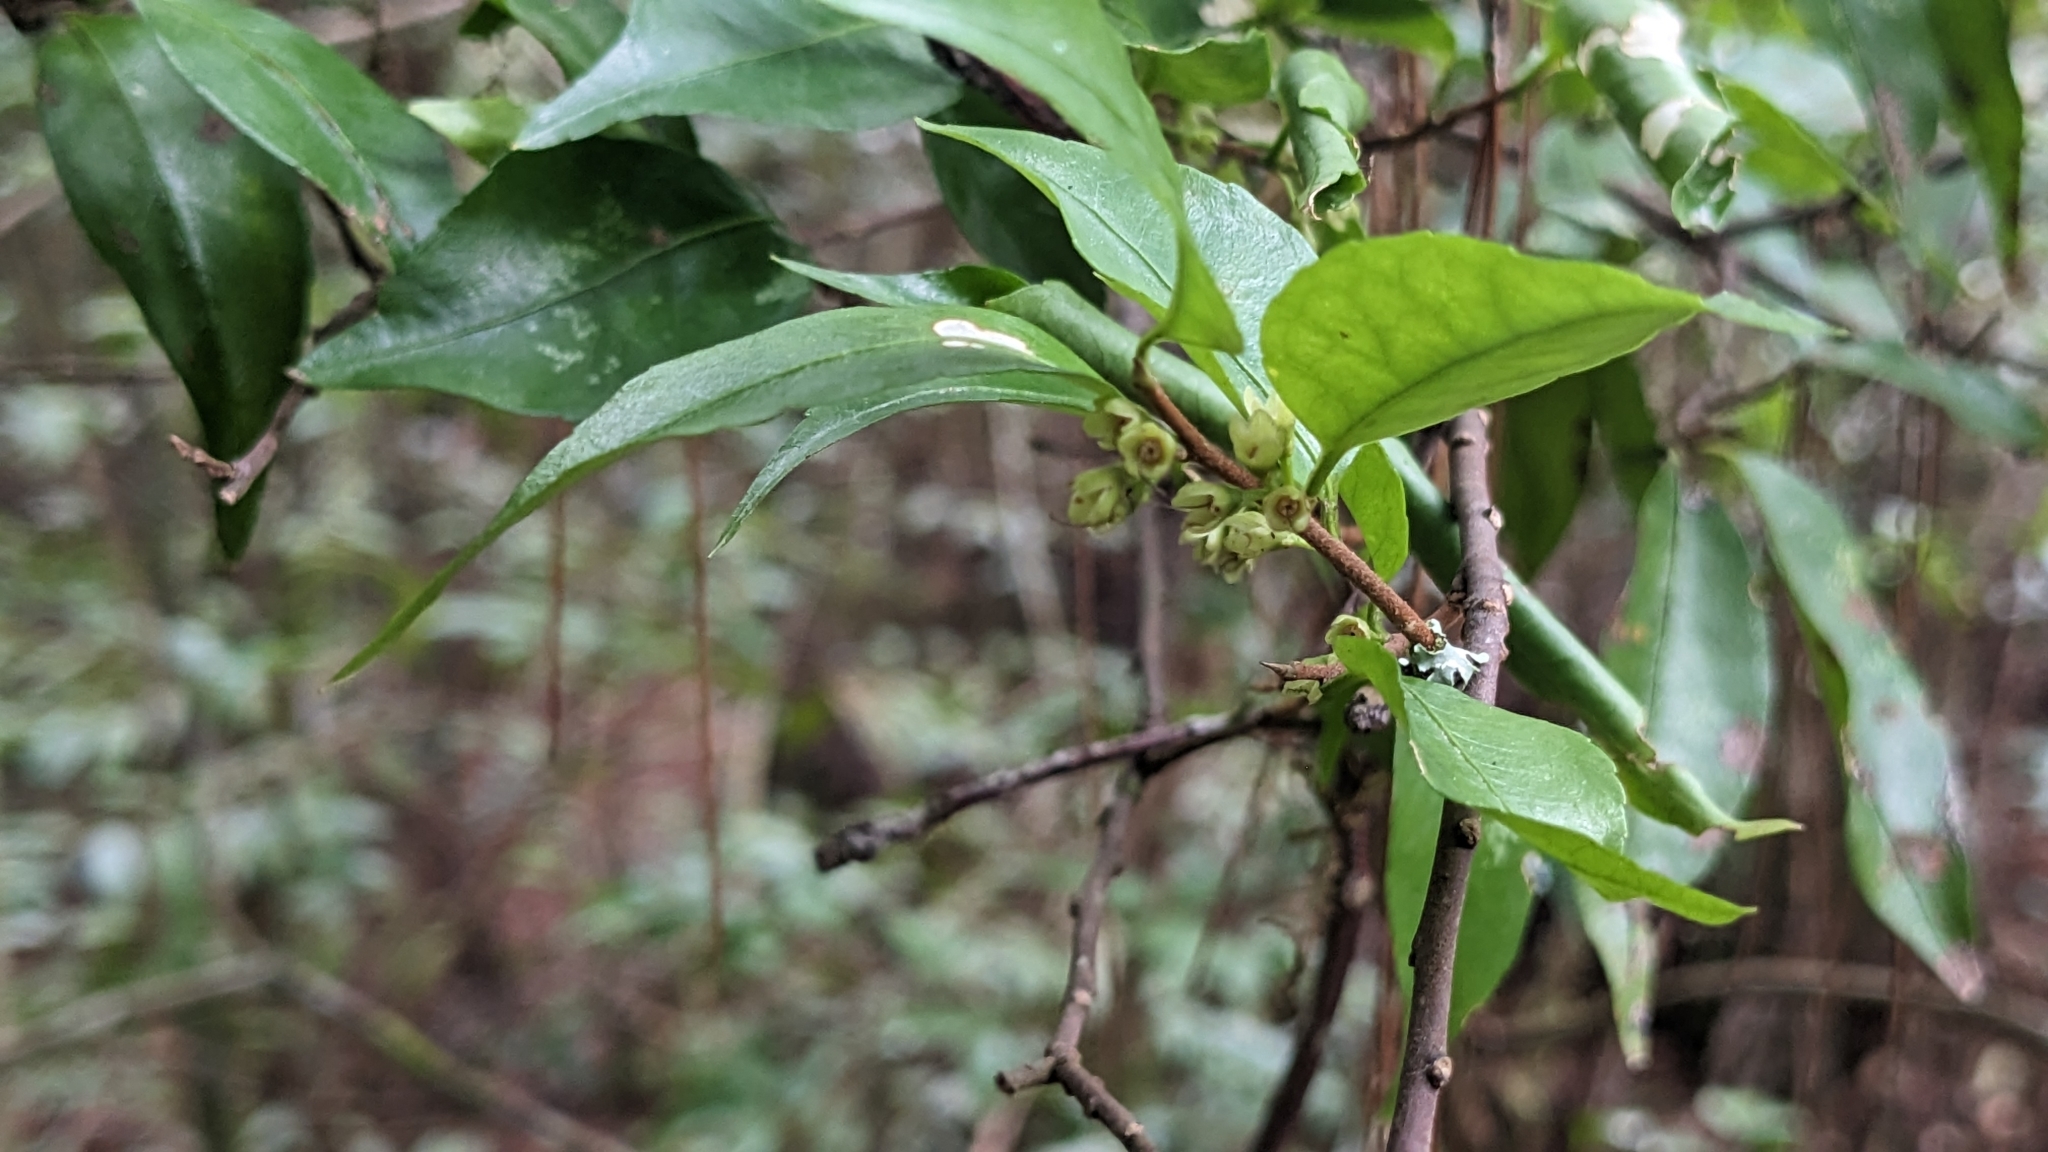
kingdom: Plantae
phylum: Tracheophyta
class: Magnoliopsida
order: Ericales
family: Symplocaceae
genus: Symplocos
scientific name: Symplocos anomala
